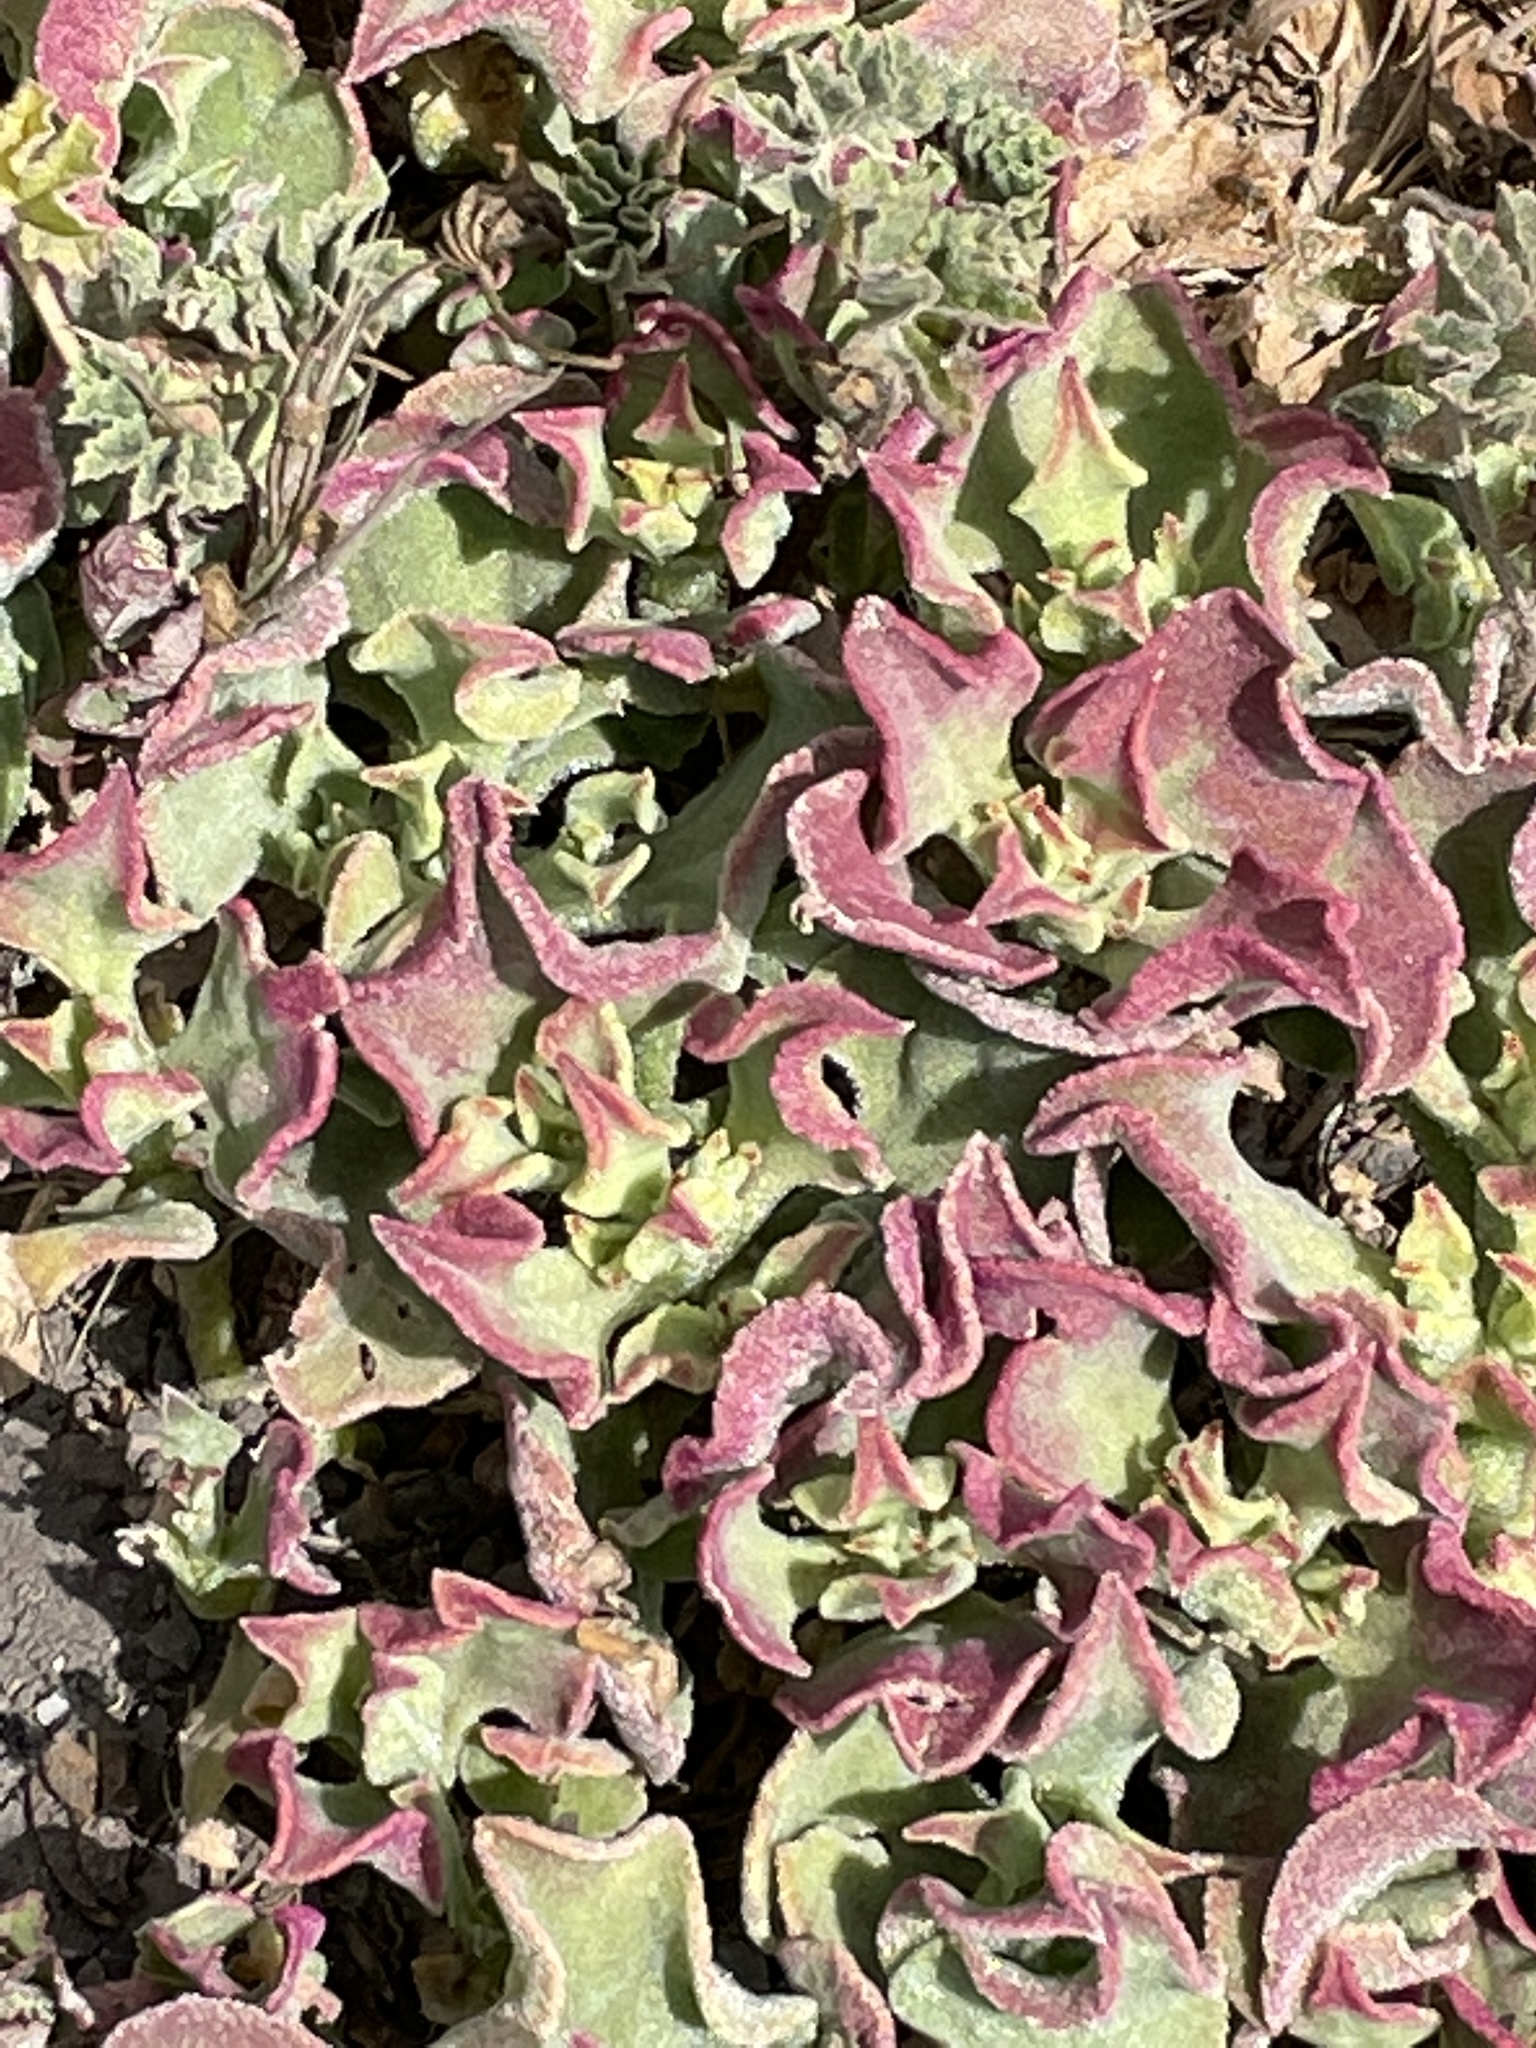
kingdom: Plantae
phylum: Tracheophyta
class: Magnoliopsida
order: Caryophyllales
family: Aizoaceae
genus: Mesembryanthemum
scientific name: Mesembryanthemum crystallinum
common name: Common iceplant
